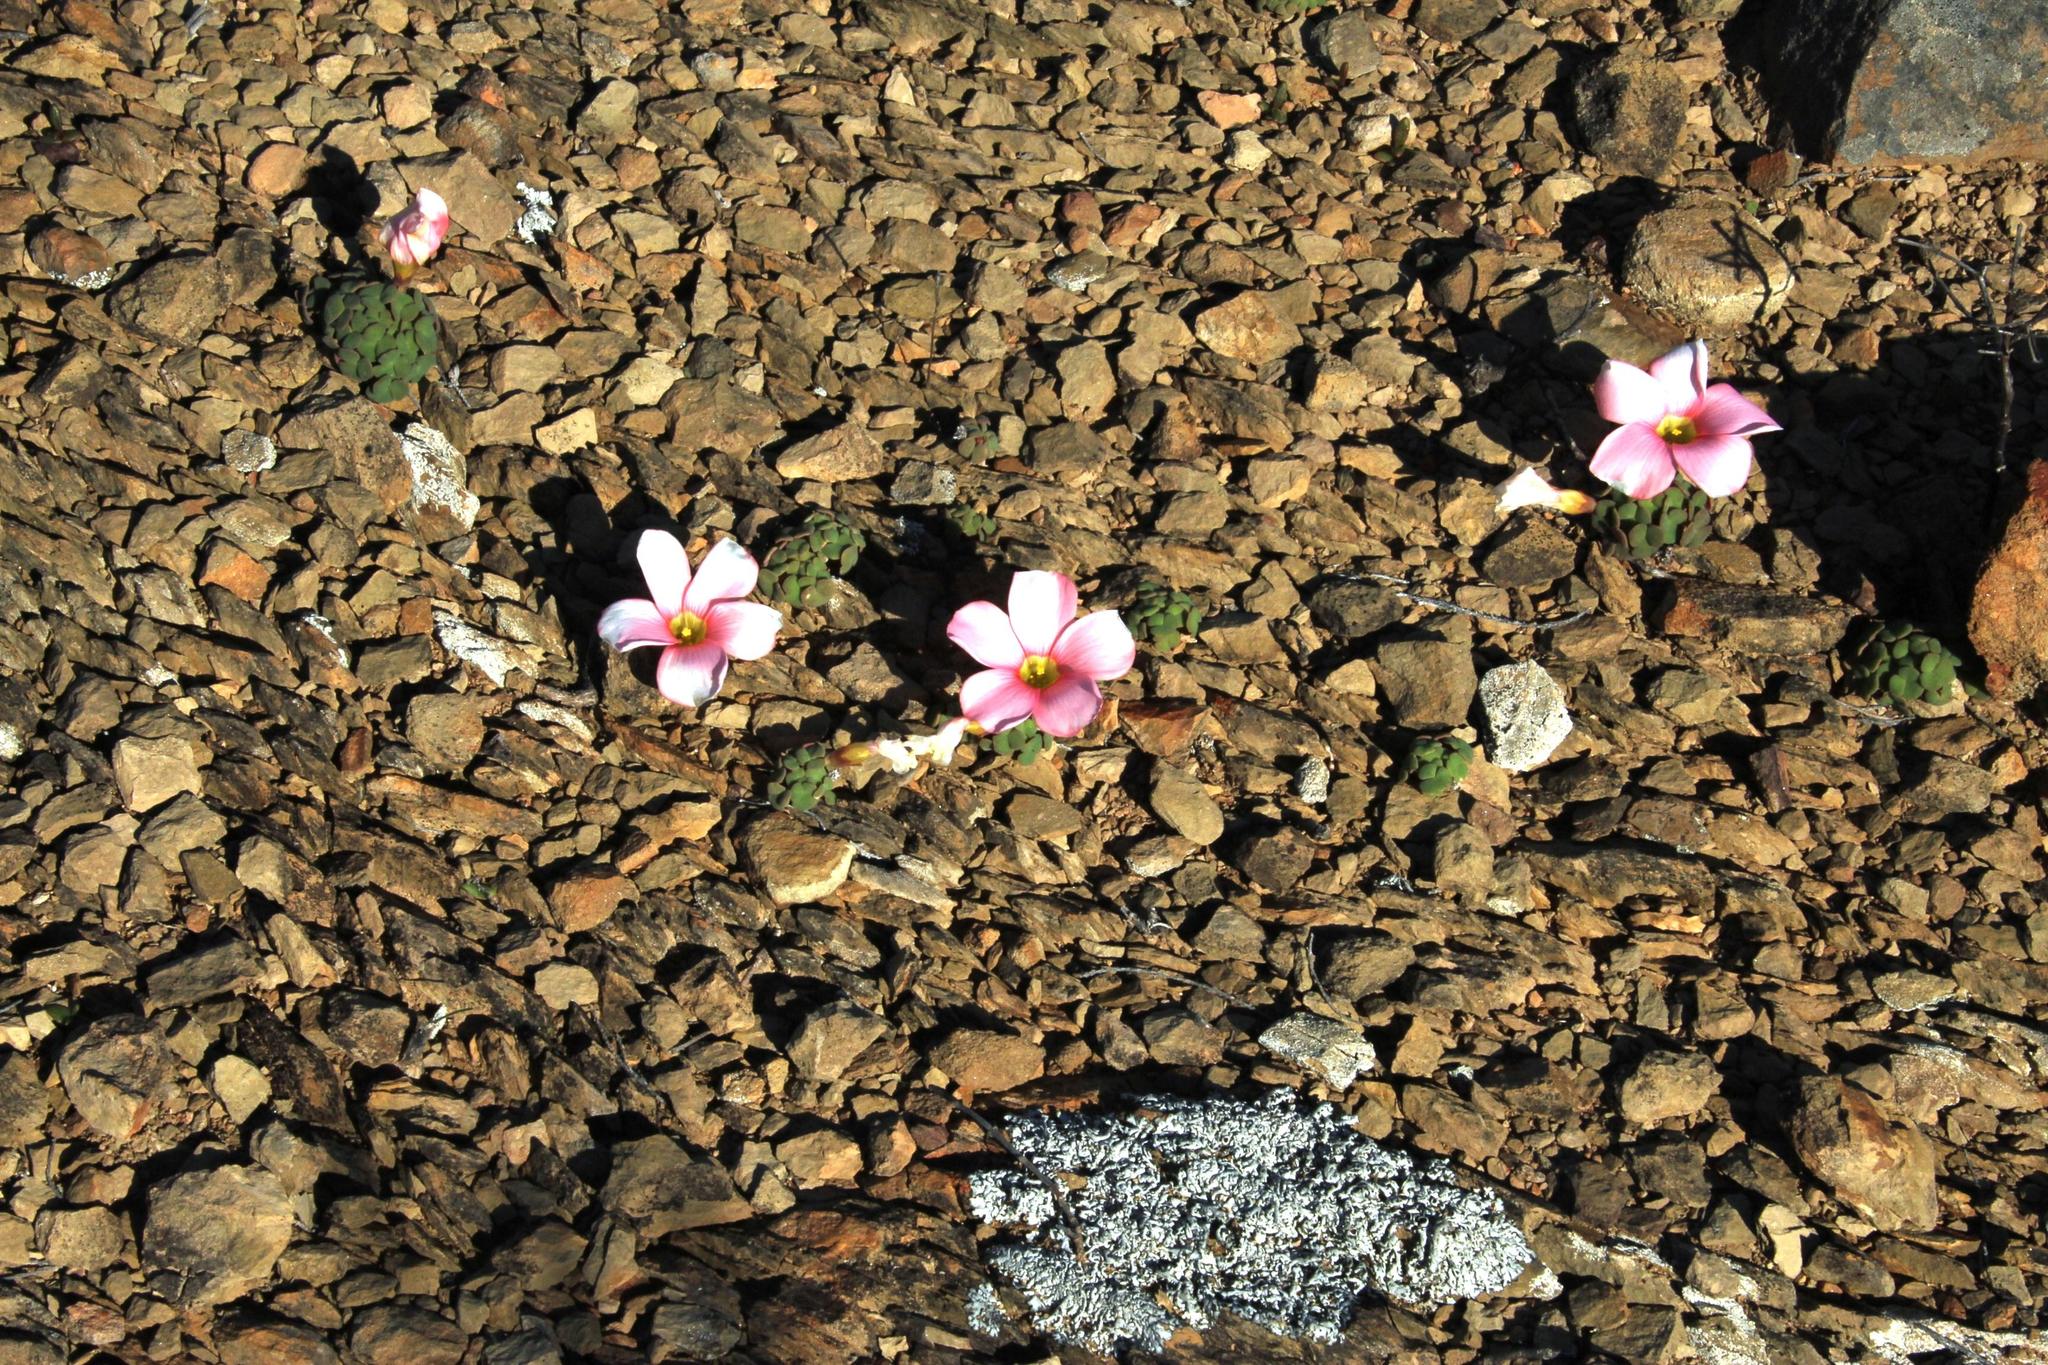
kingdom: Plantae
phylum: Tracheophyta
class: Magnoliopsida
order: Oxalidales
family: Oxalidaceae
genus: Oxalis
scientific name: Oxalis convexula
